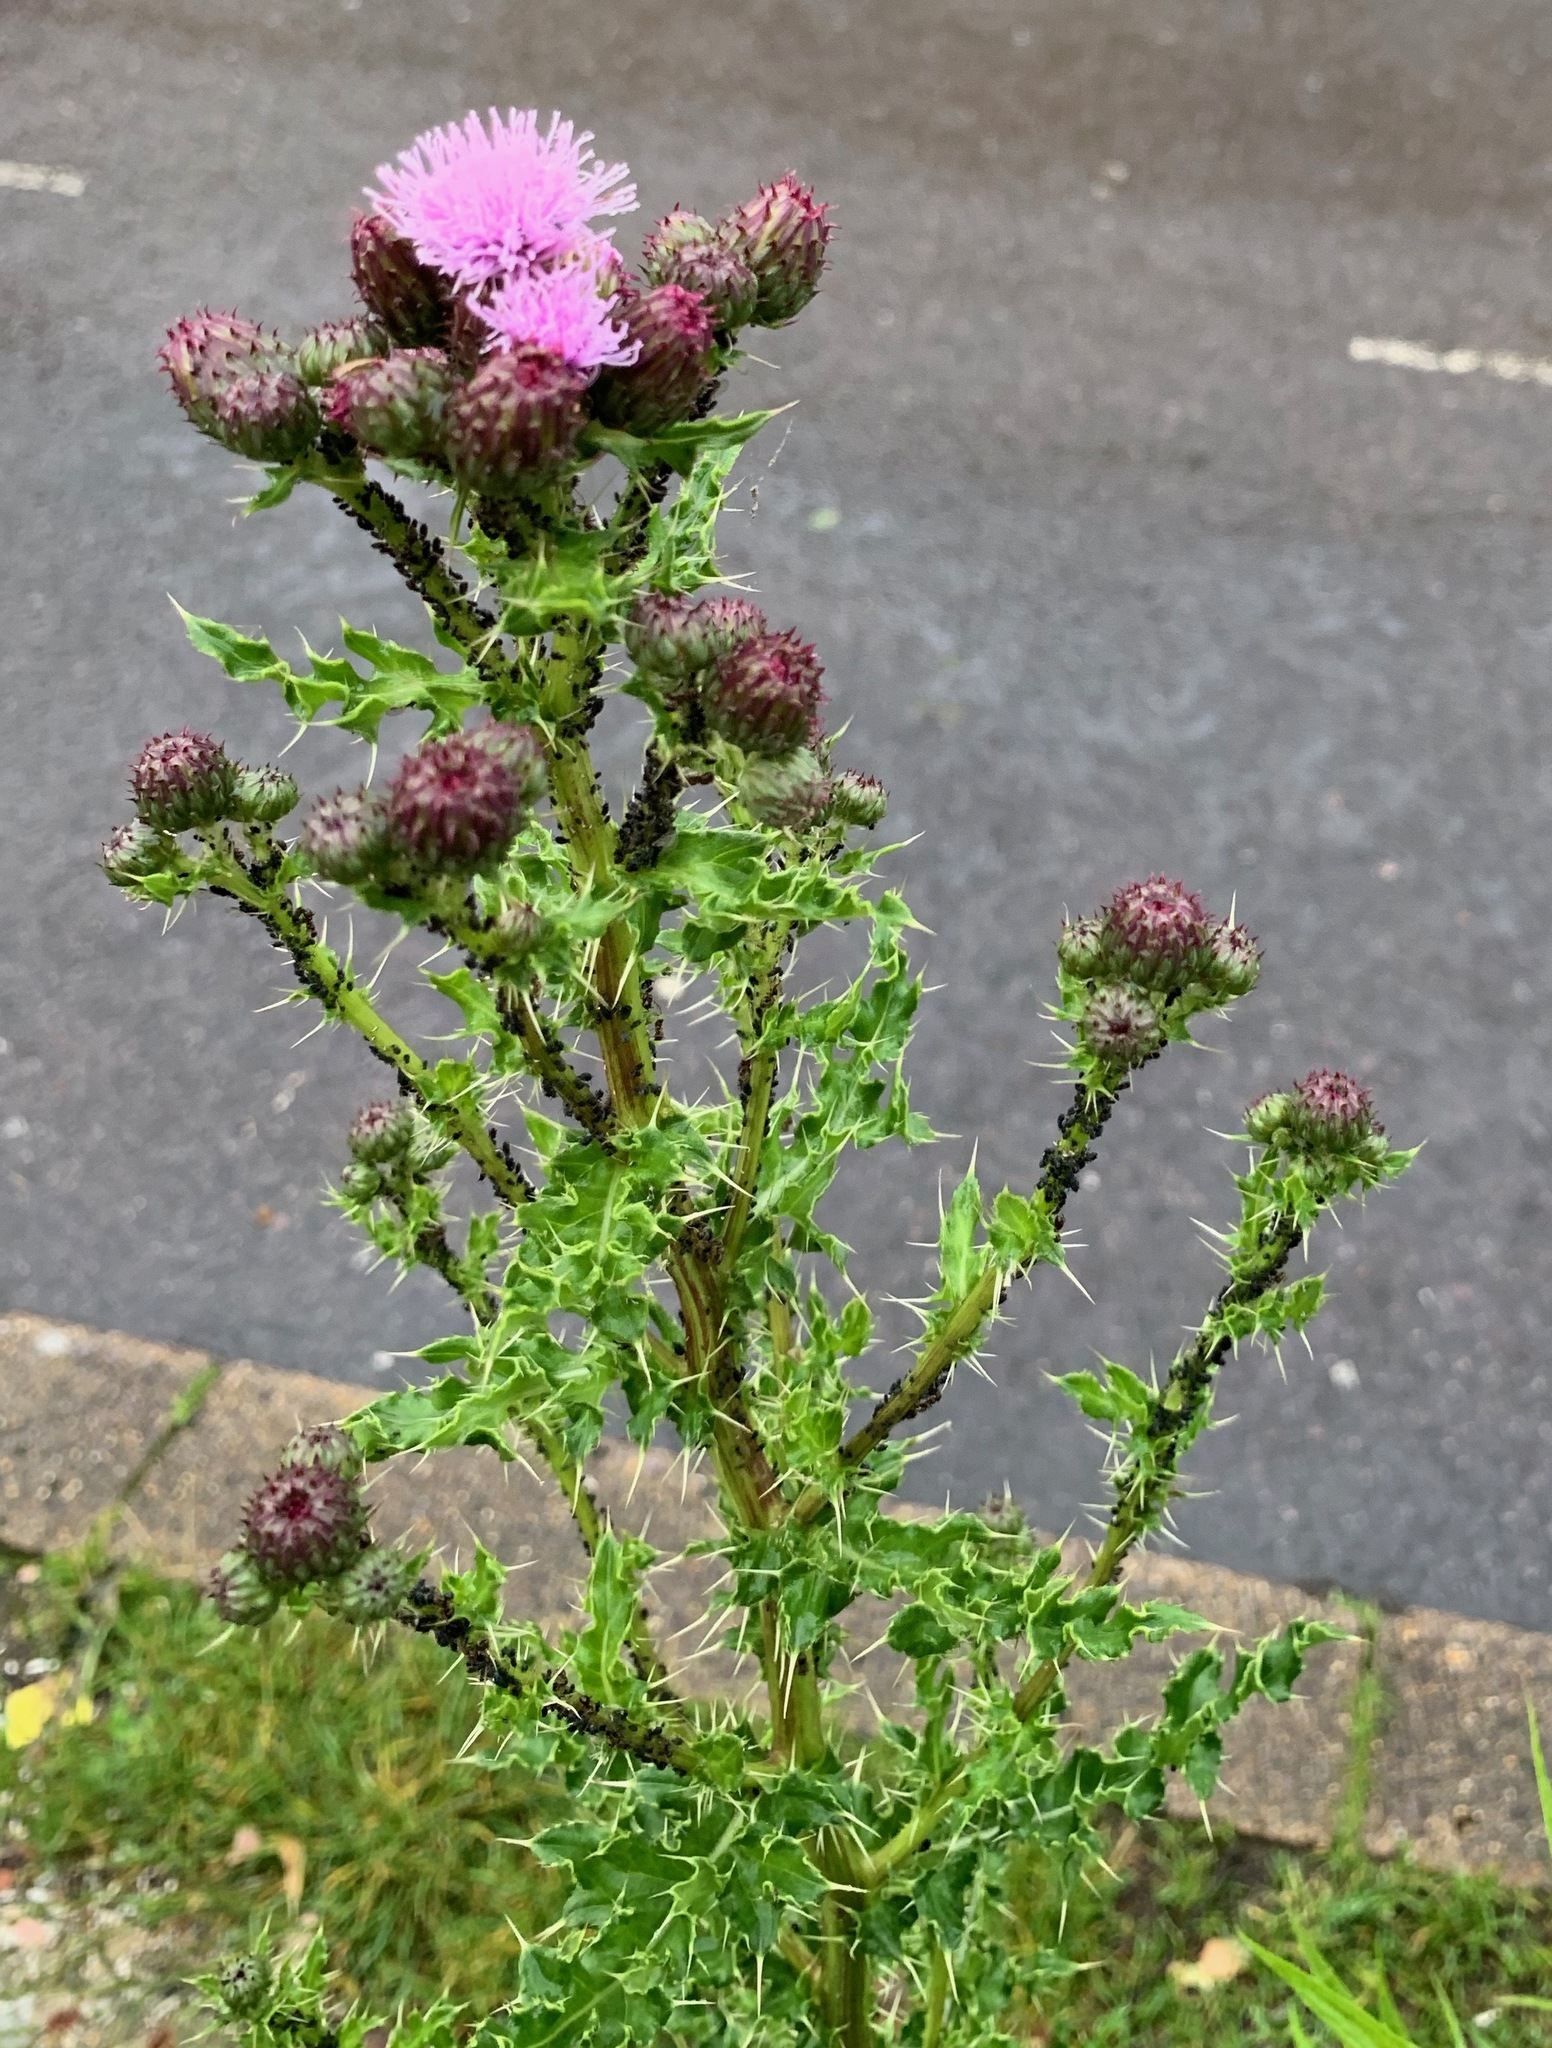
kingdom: Plantae
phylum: Tracheophyta
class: Magnoliopsida
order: Asterales
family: Asteraceae
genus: Cirsium
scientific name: Cirsium arvense
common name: Creeping thistle
